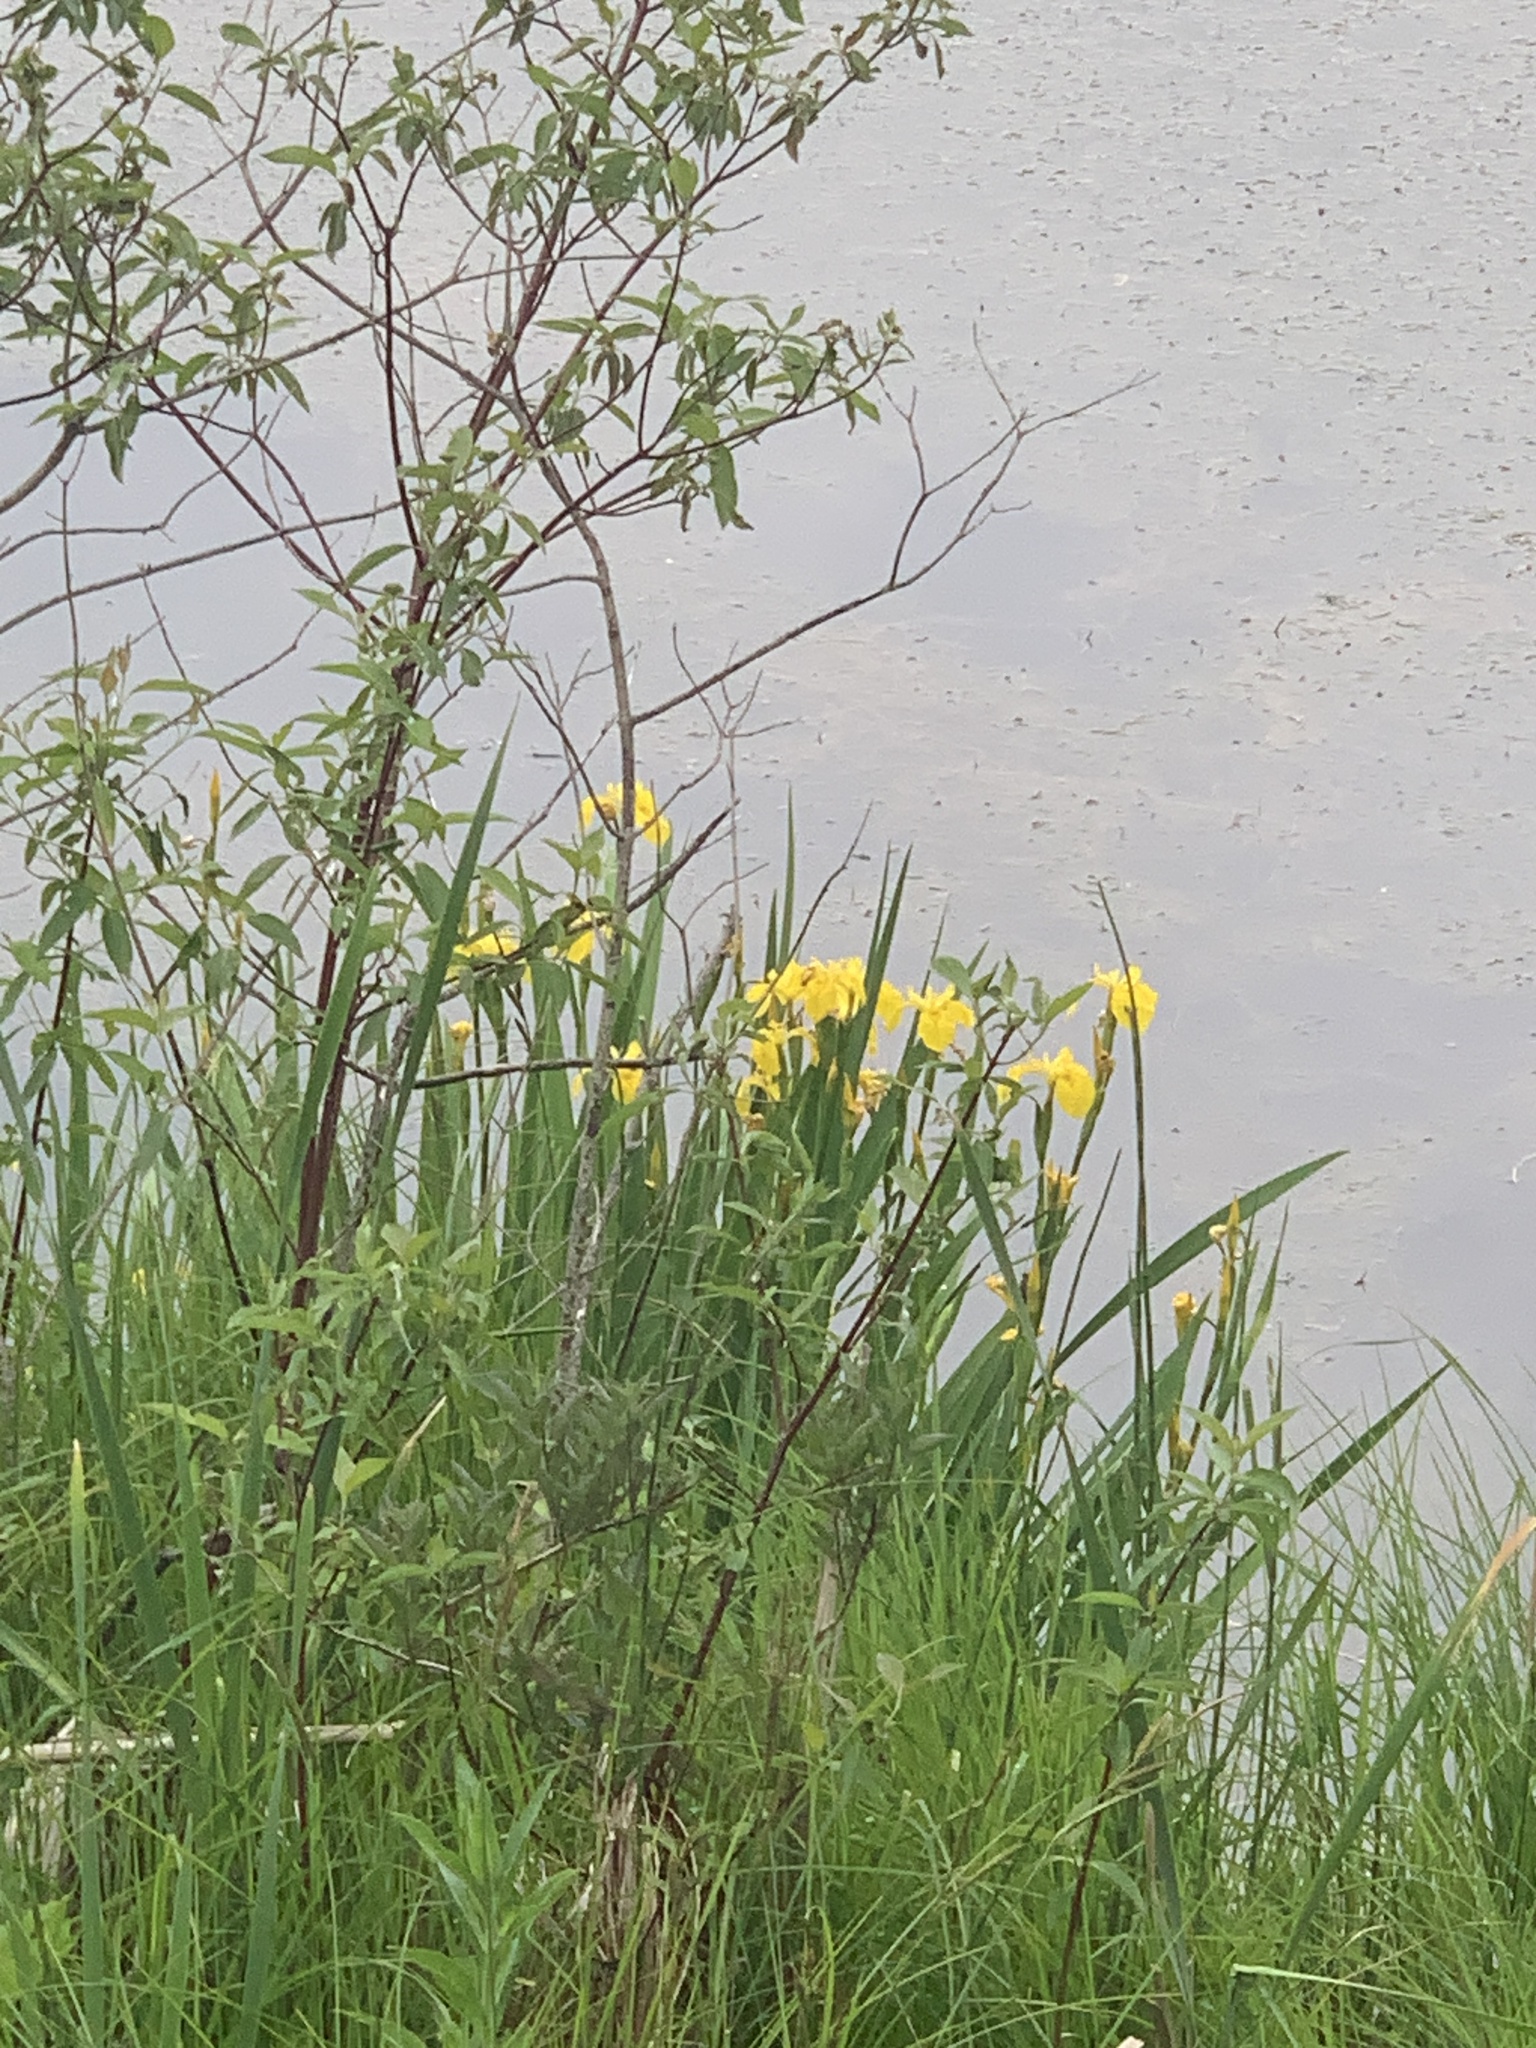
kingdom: Plantae
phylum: Tracheophyta
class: Liliopsida
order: Asparagales
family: Iridaceae
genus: Iris
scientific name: Iris pseudacorus
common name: Yellow flag
